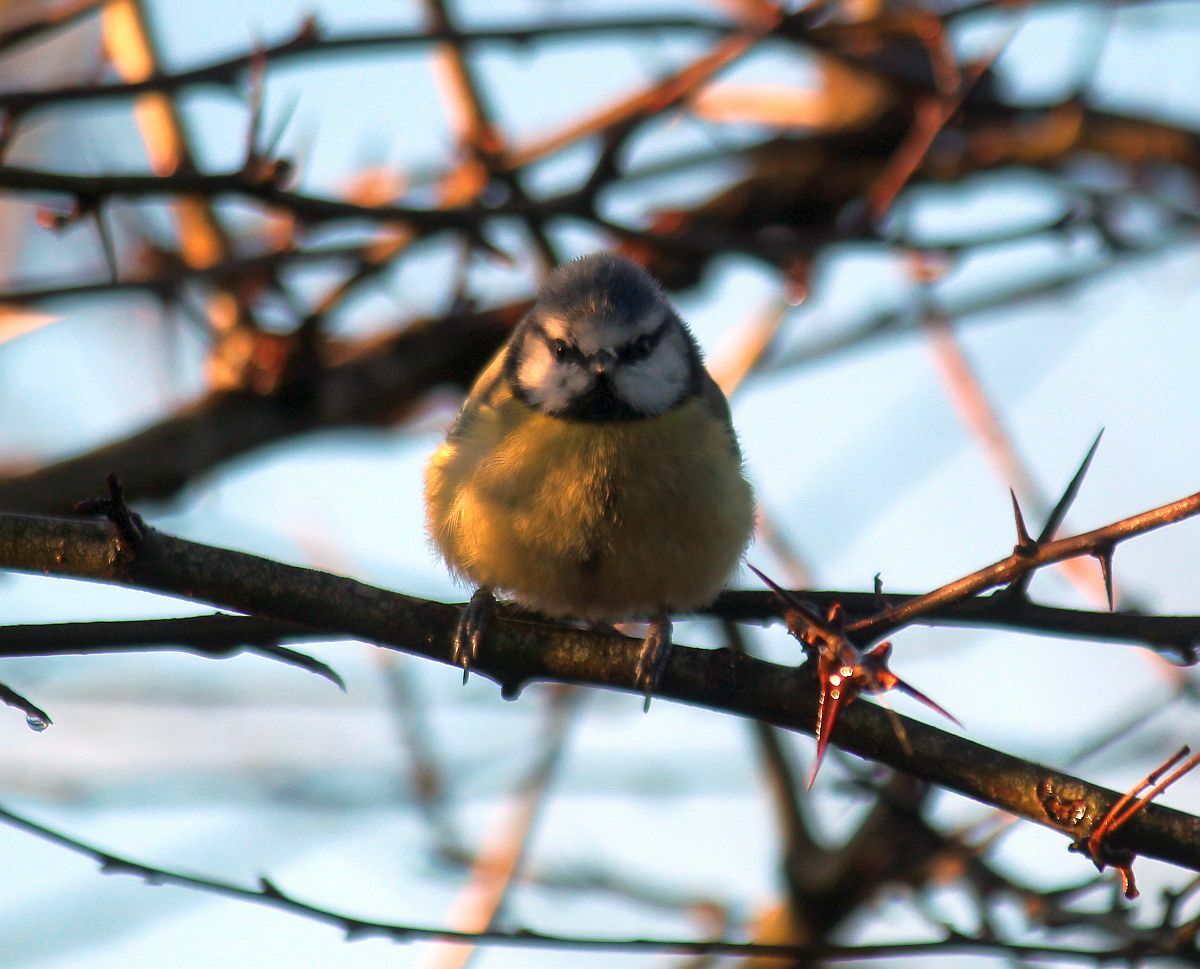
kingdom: Animalia
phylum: Chordata
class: Aves
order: Passeriformes
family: Paridae
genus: Cyanistes
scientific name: Cyanistes caeruleus
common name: Eurasian blue tit
